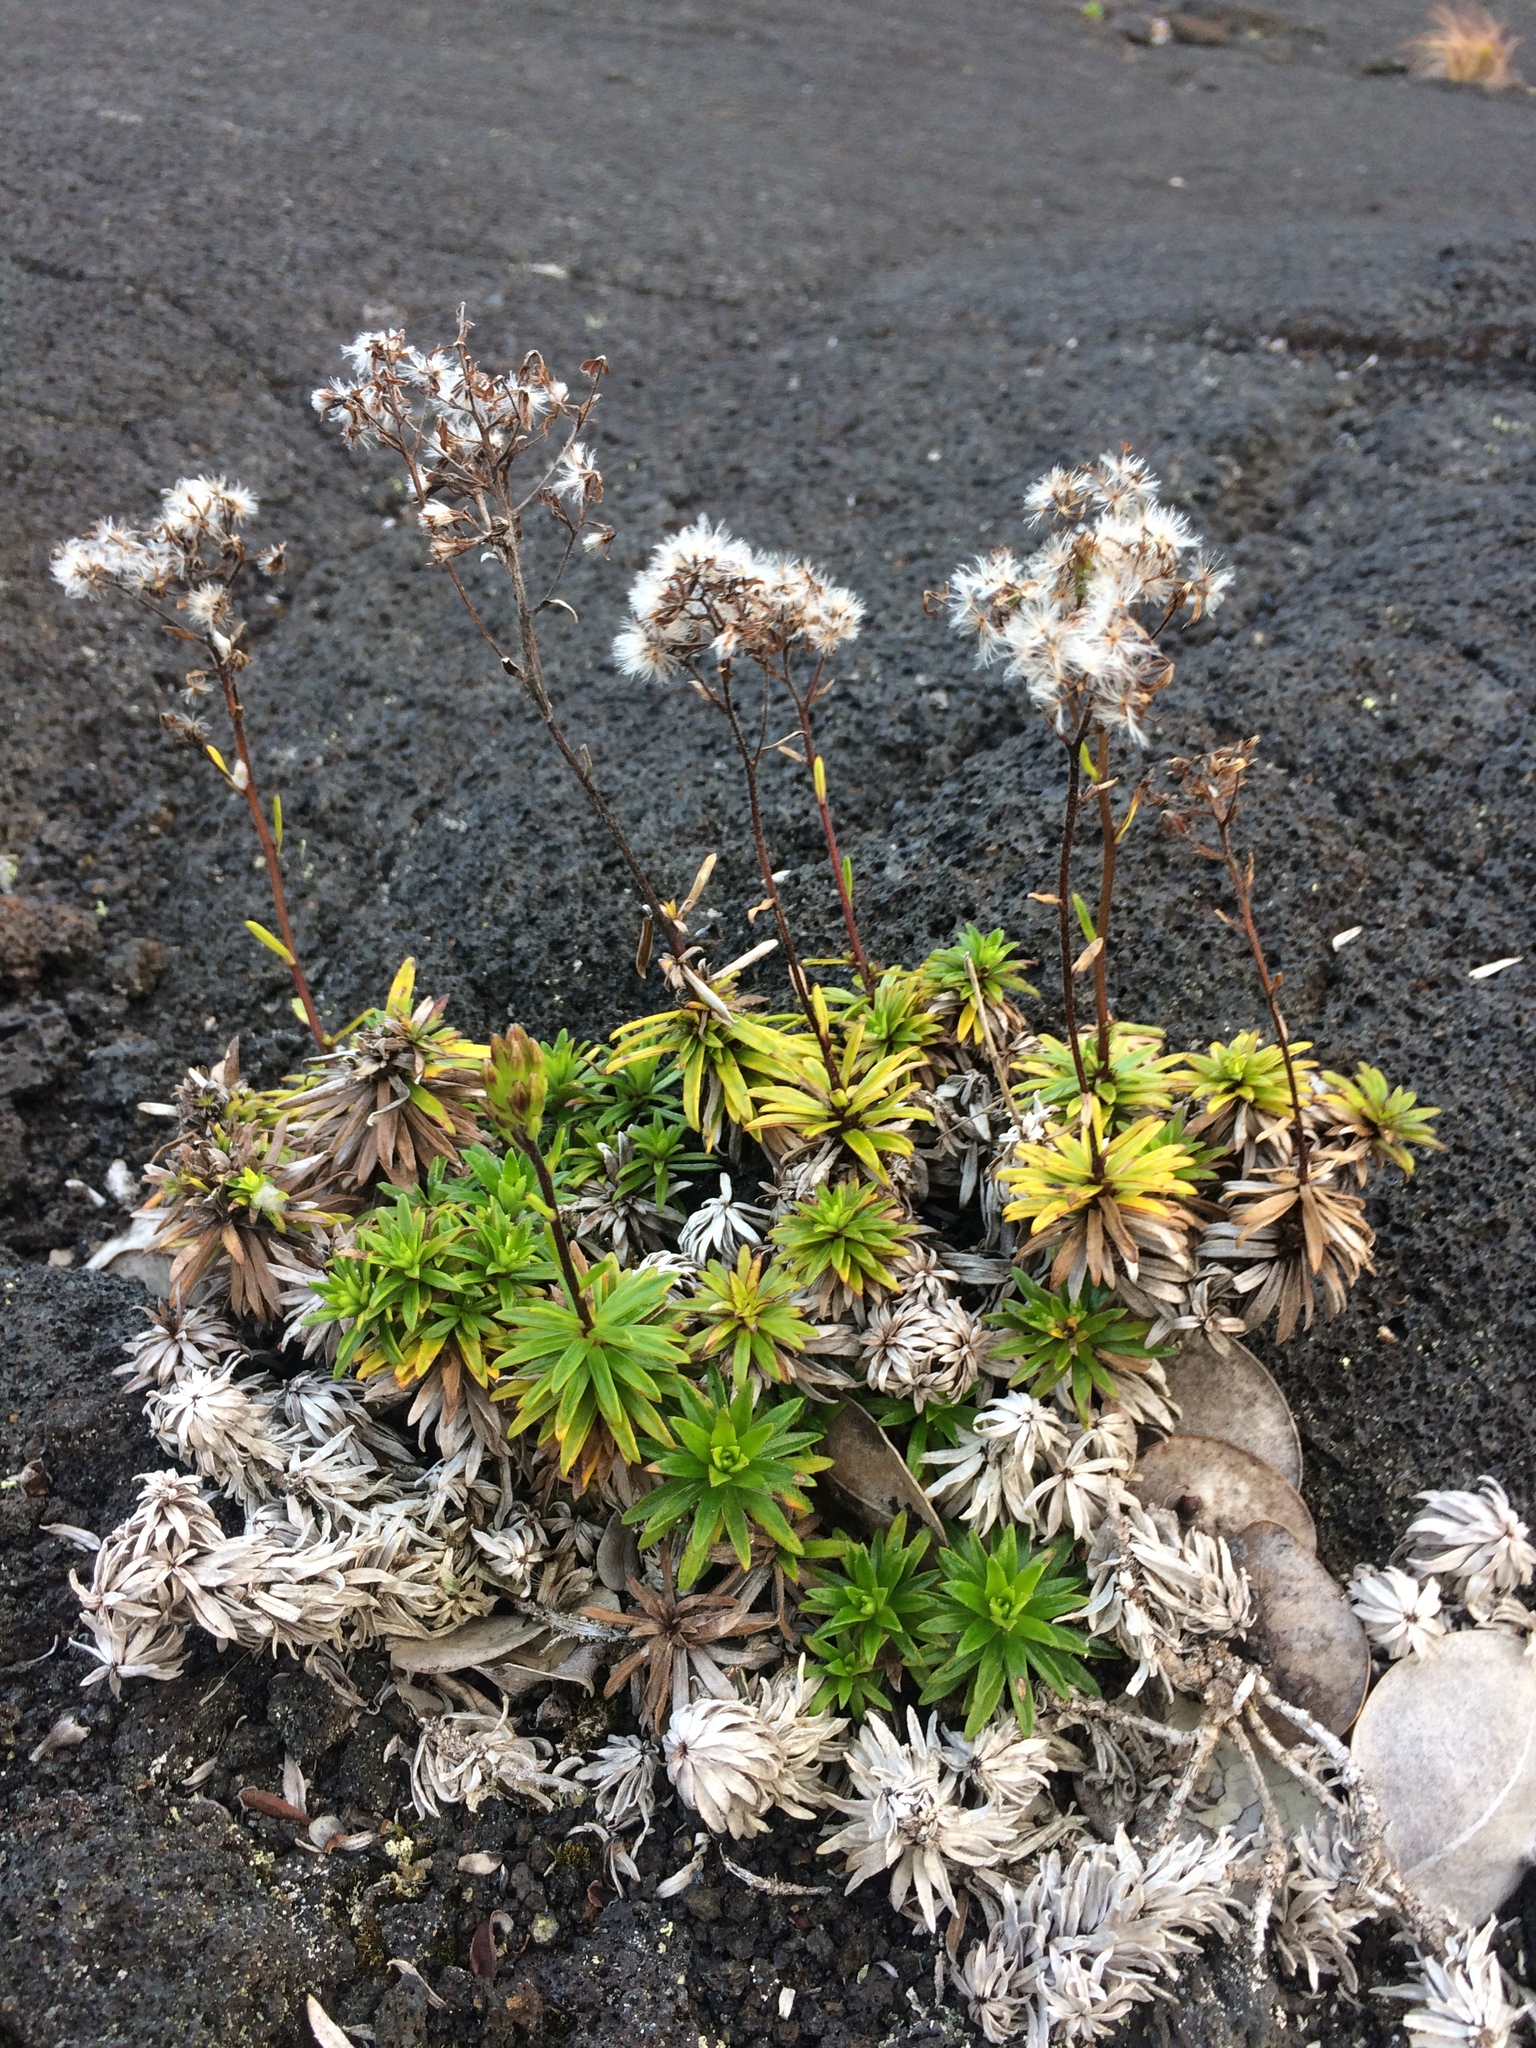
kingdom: Plantae
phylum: Tracheophyta
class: Magnoliopsida
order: Asterales
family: Asteraceae
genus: Dubautia
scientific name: Dubautia scabra
